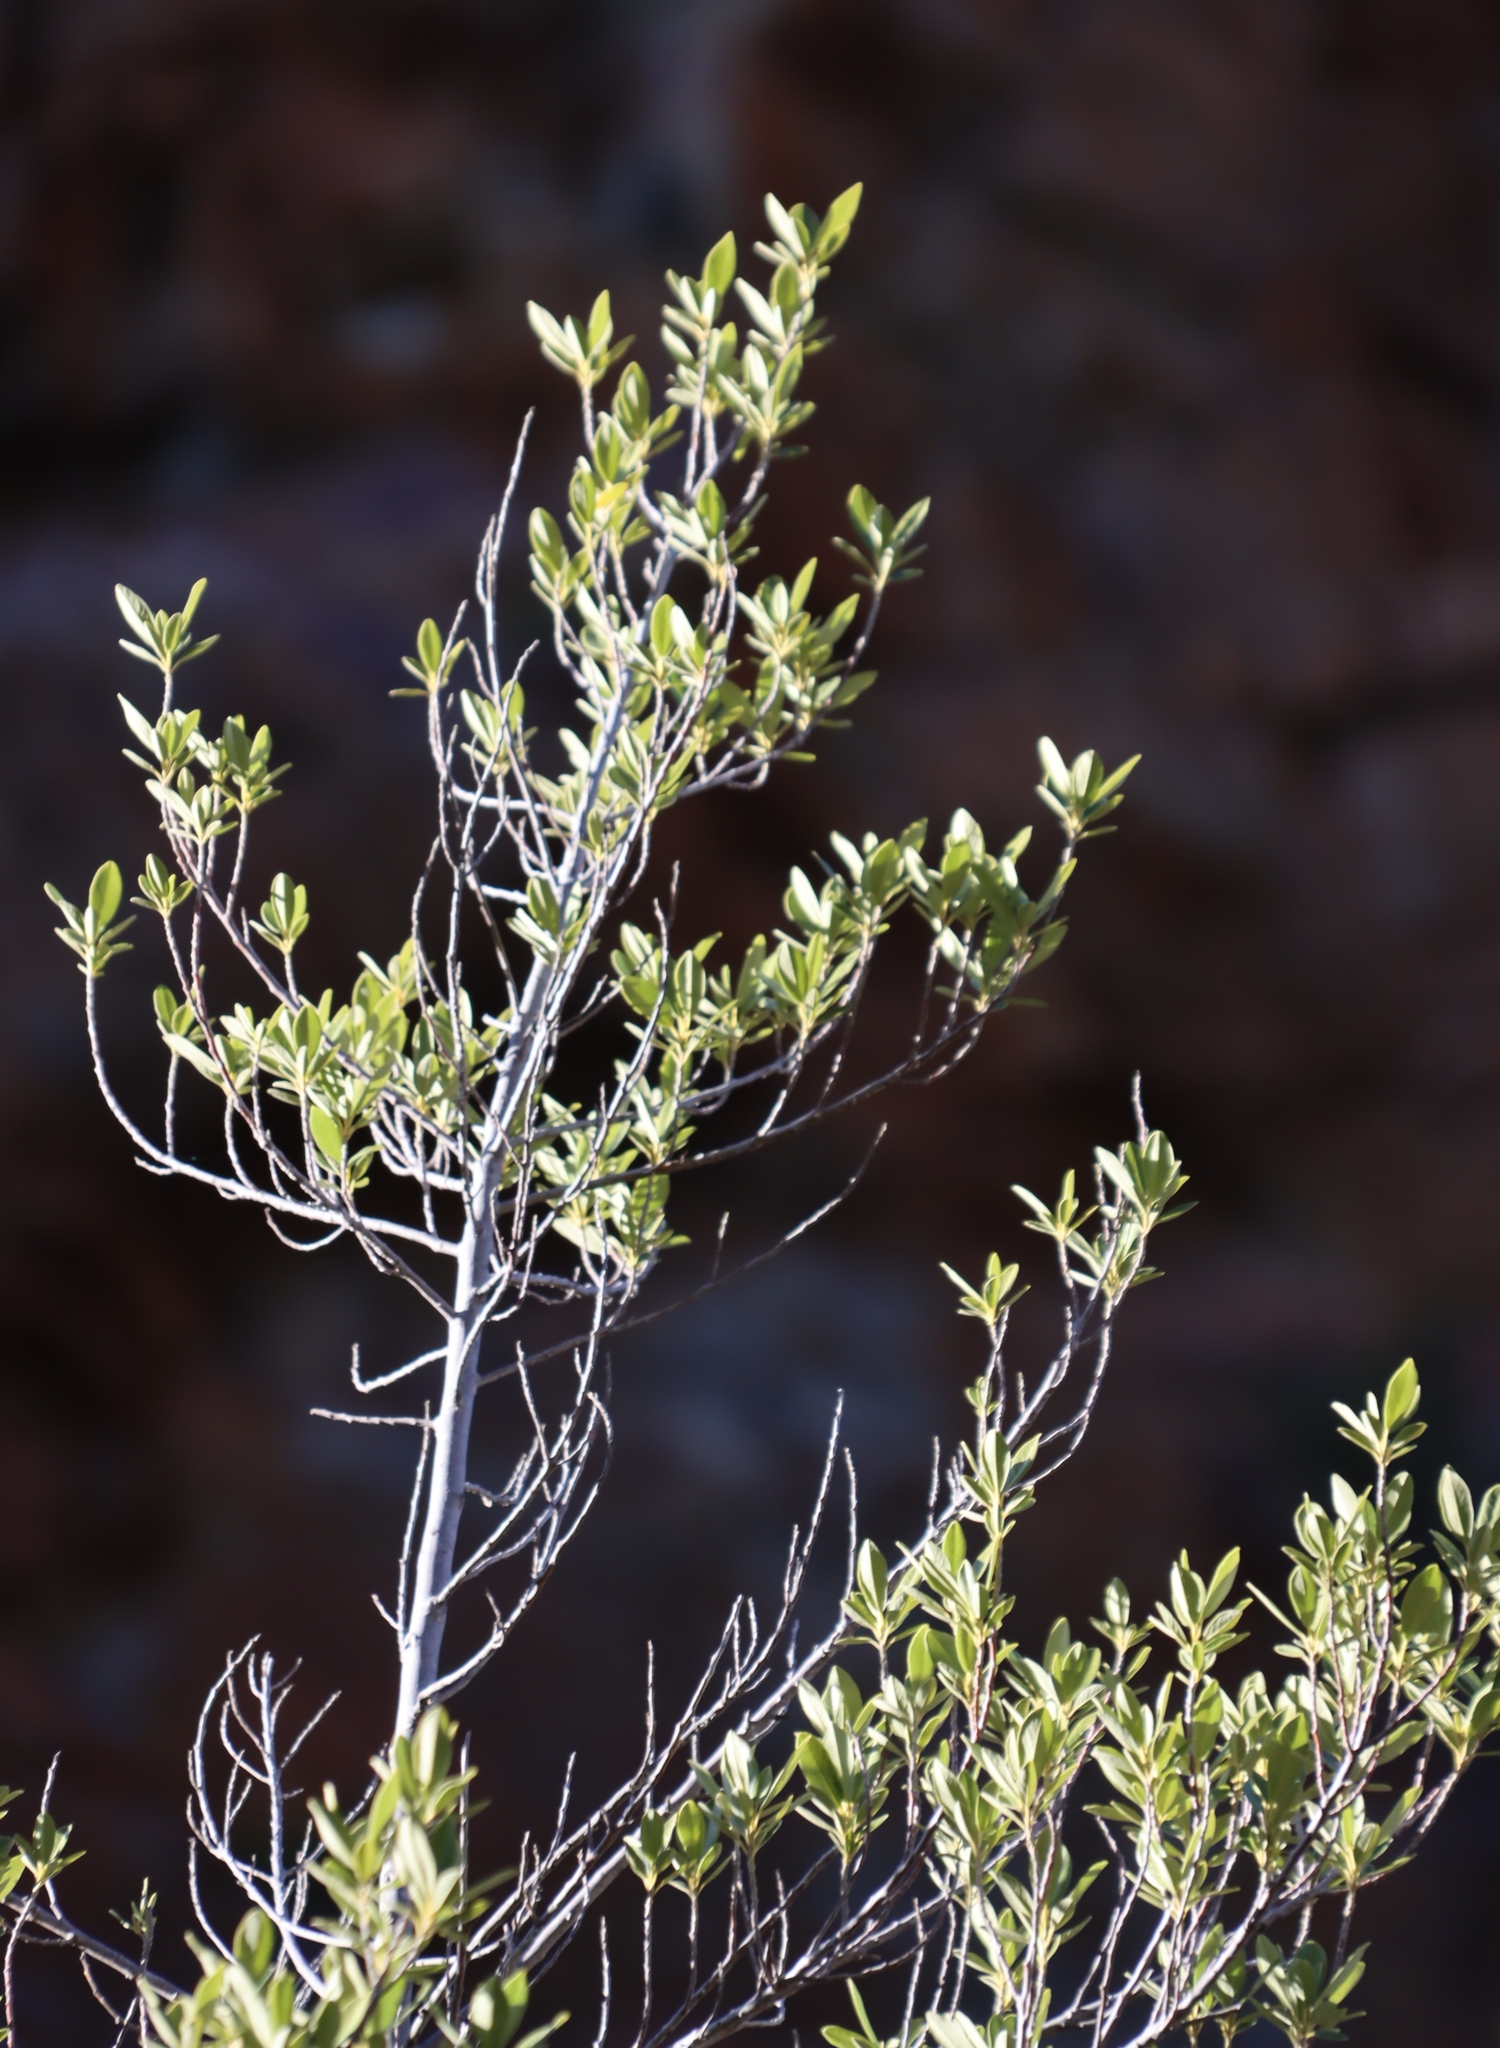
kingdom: Plantae
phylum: Tracheophyta
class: Magnoliopsida
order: Malpighiales
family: Achariaceae
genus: Kiggelaria
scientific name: Kiggelaria africana
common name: Wild peach
